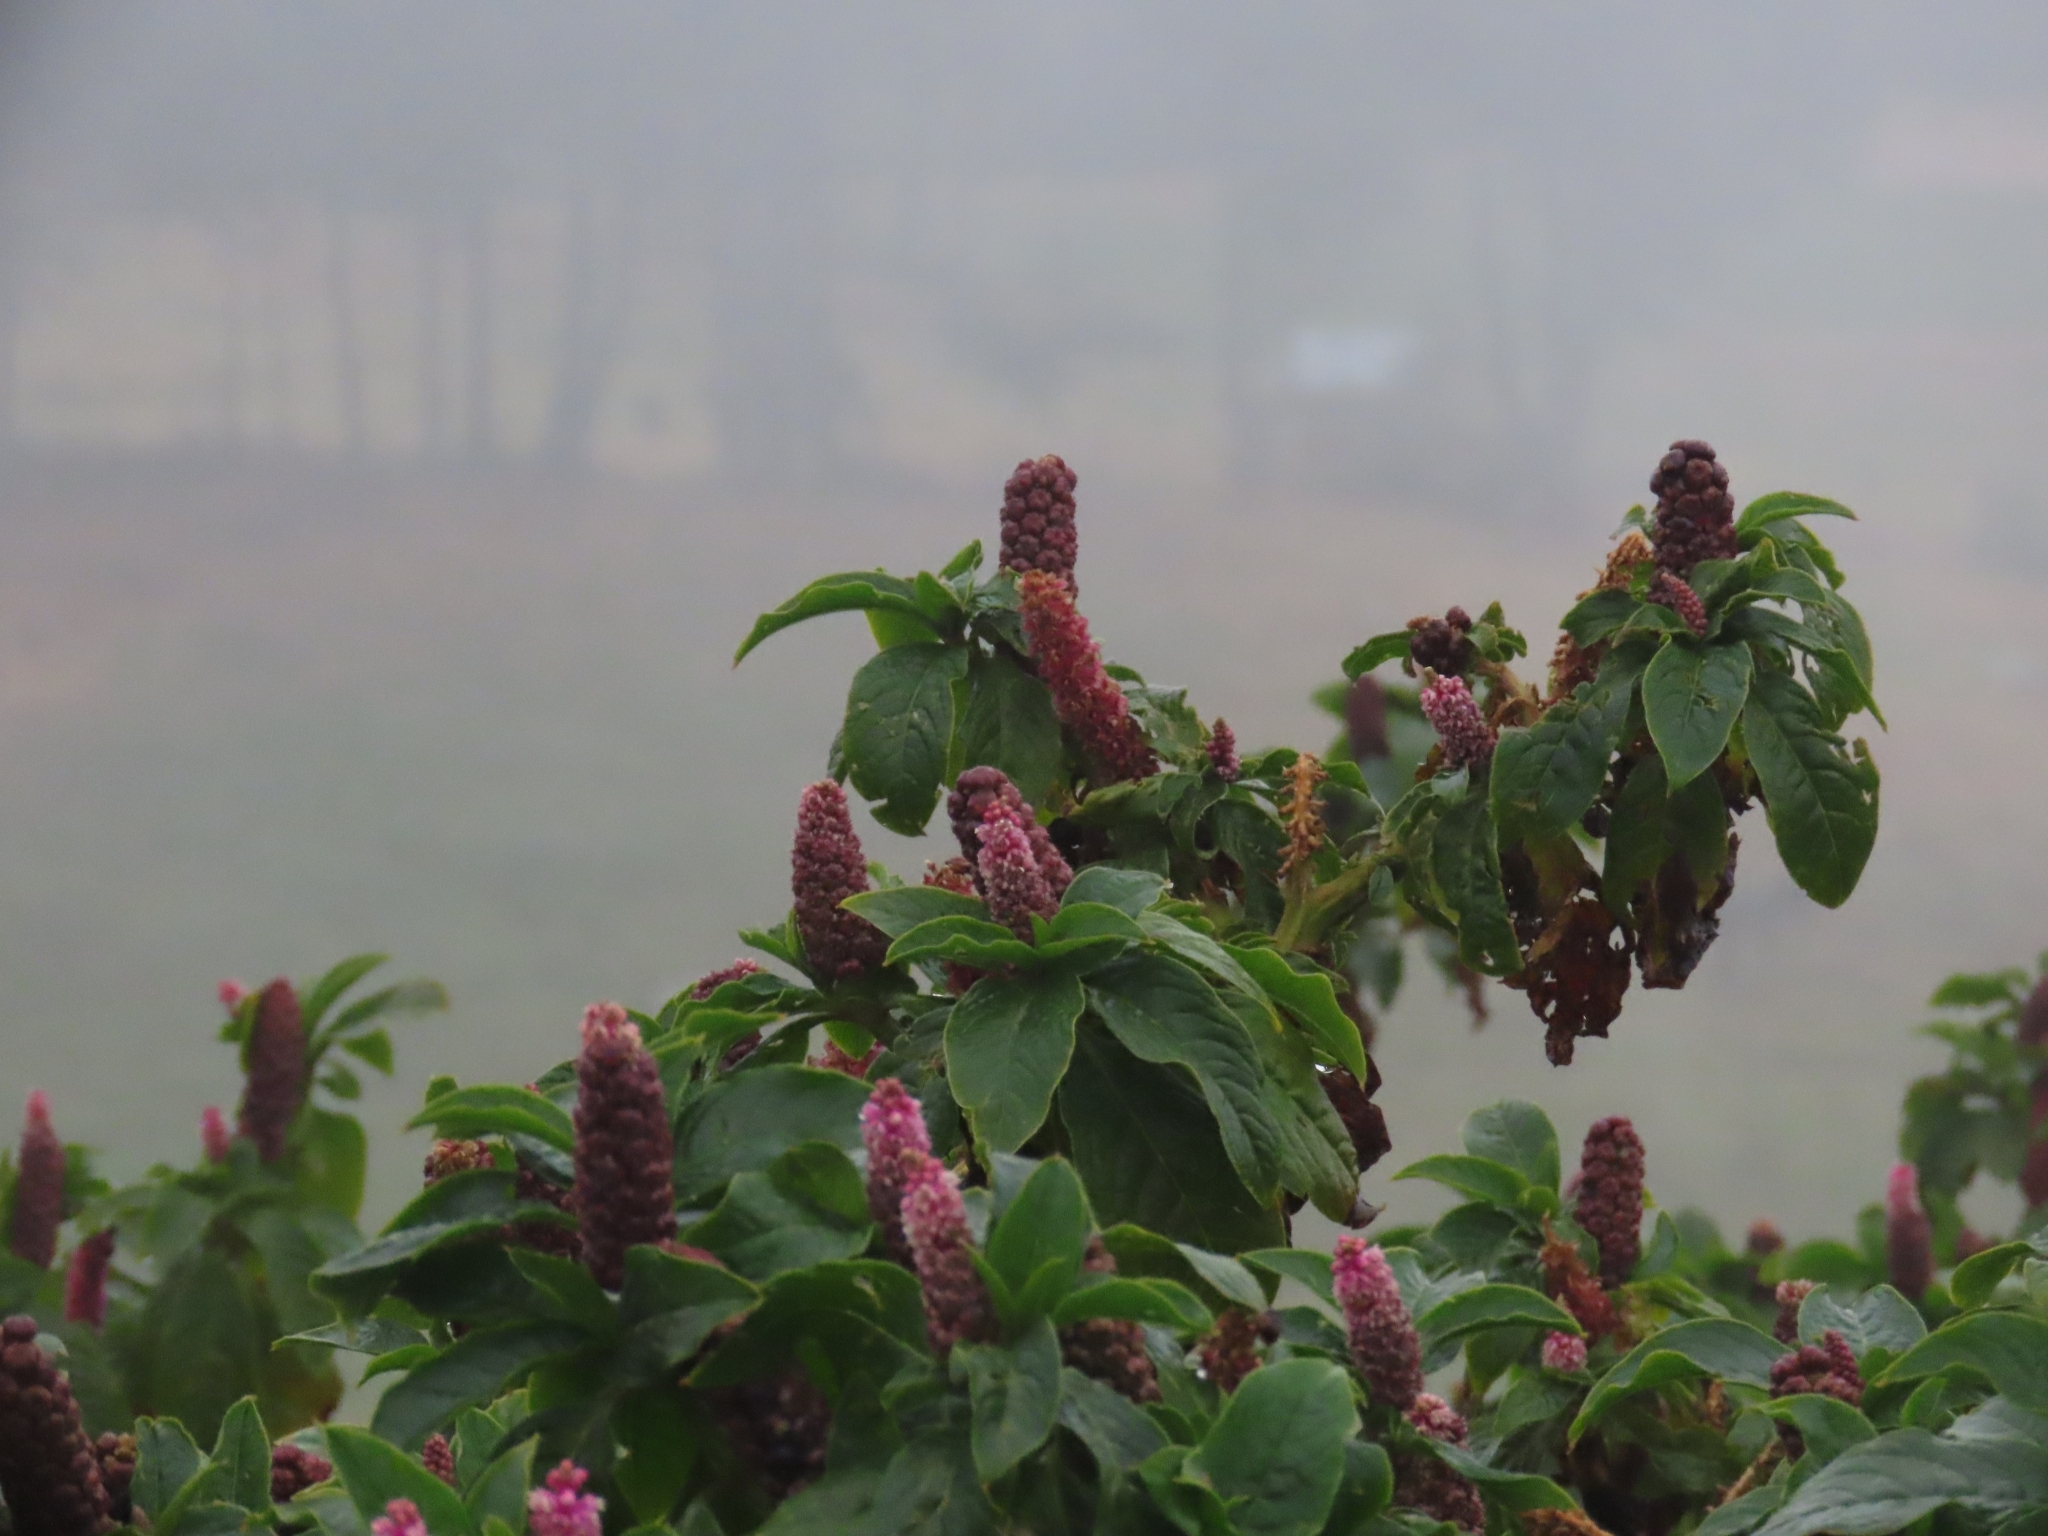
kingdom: Plantae
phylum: Tracheophyta
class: Magnoliopsida
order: Caryophyllales
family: Phytolaccaceae
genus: Phytolacca
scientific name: Phytolacca bogotensis
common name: Southern pokeweed
